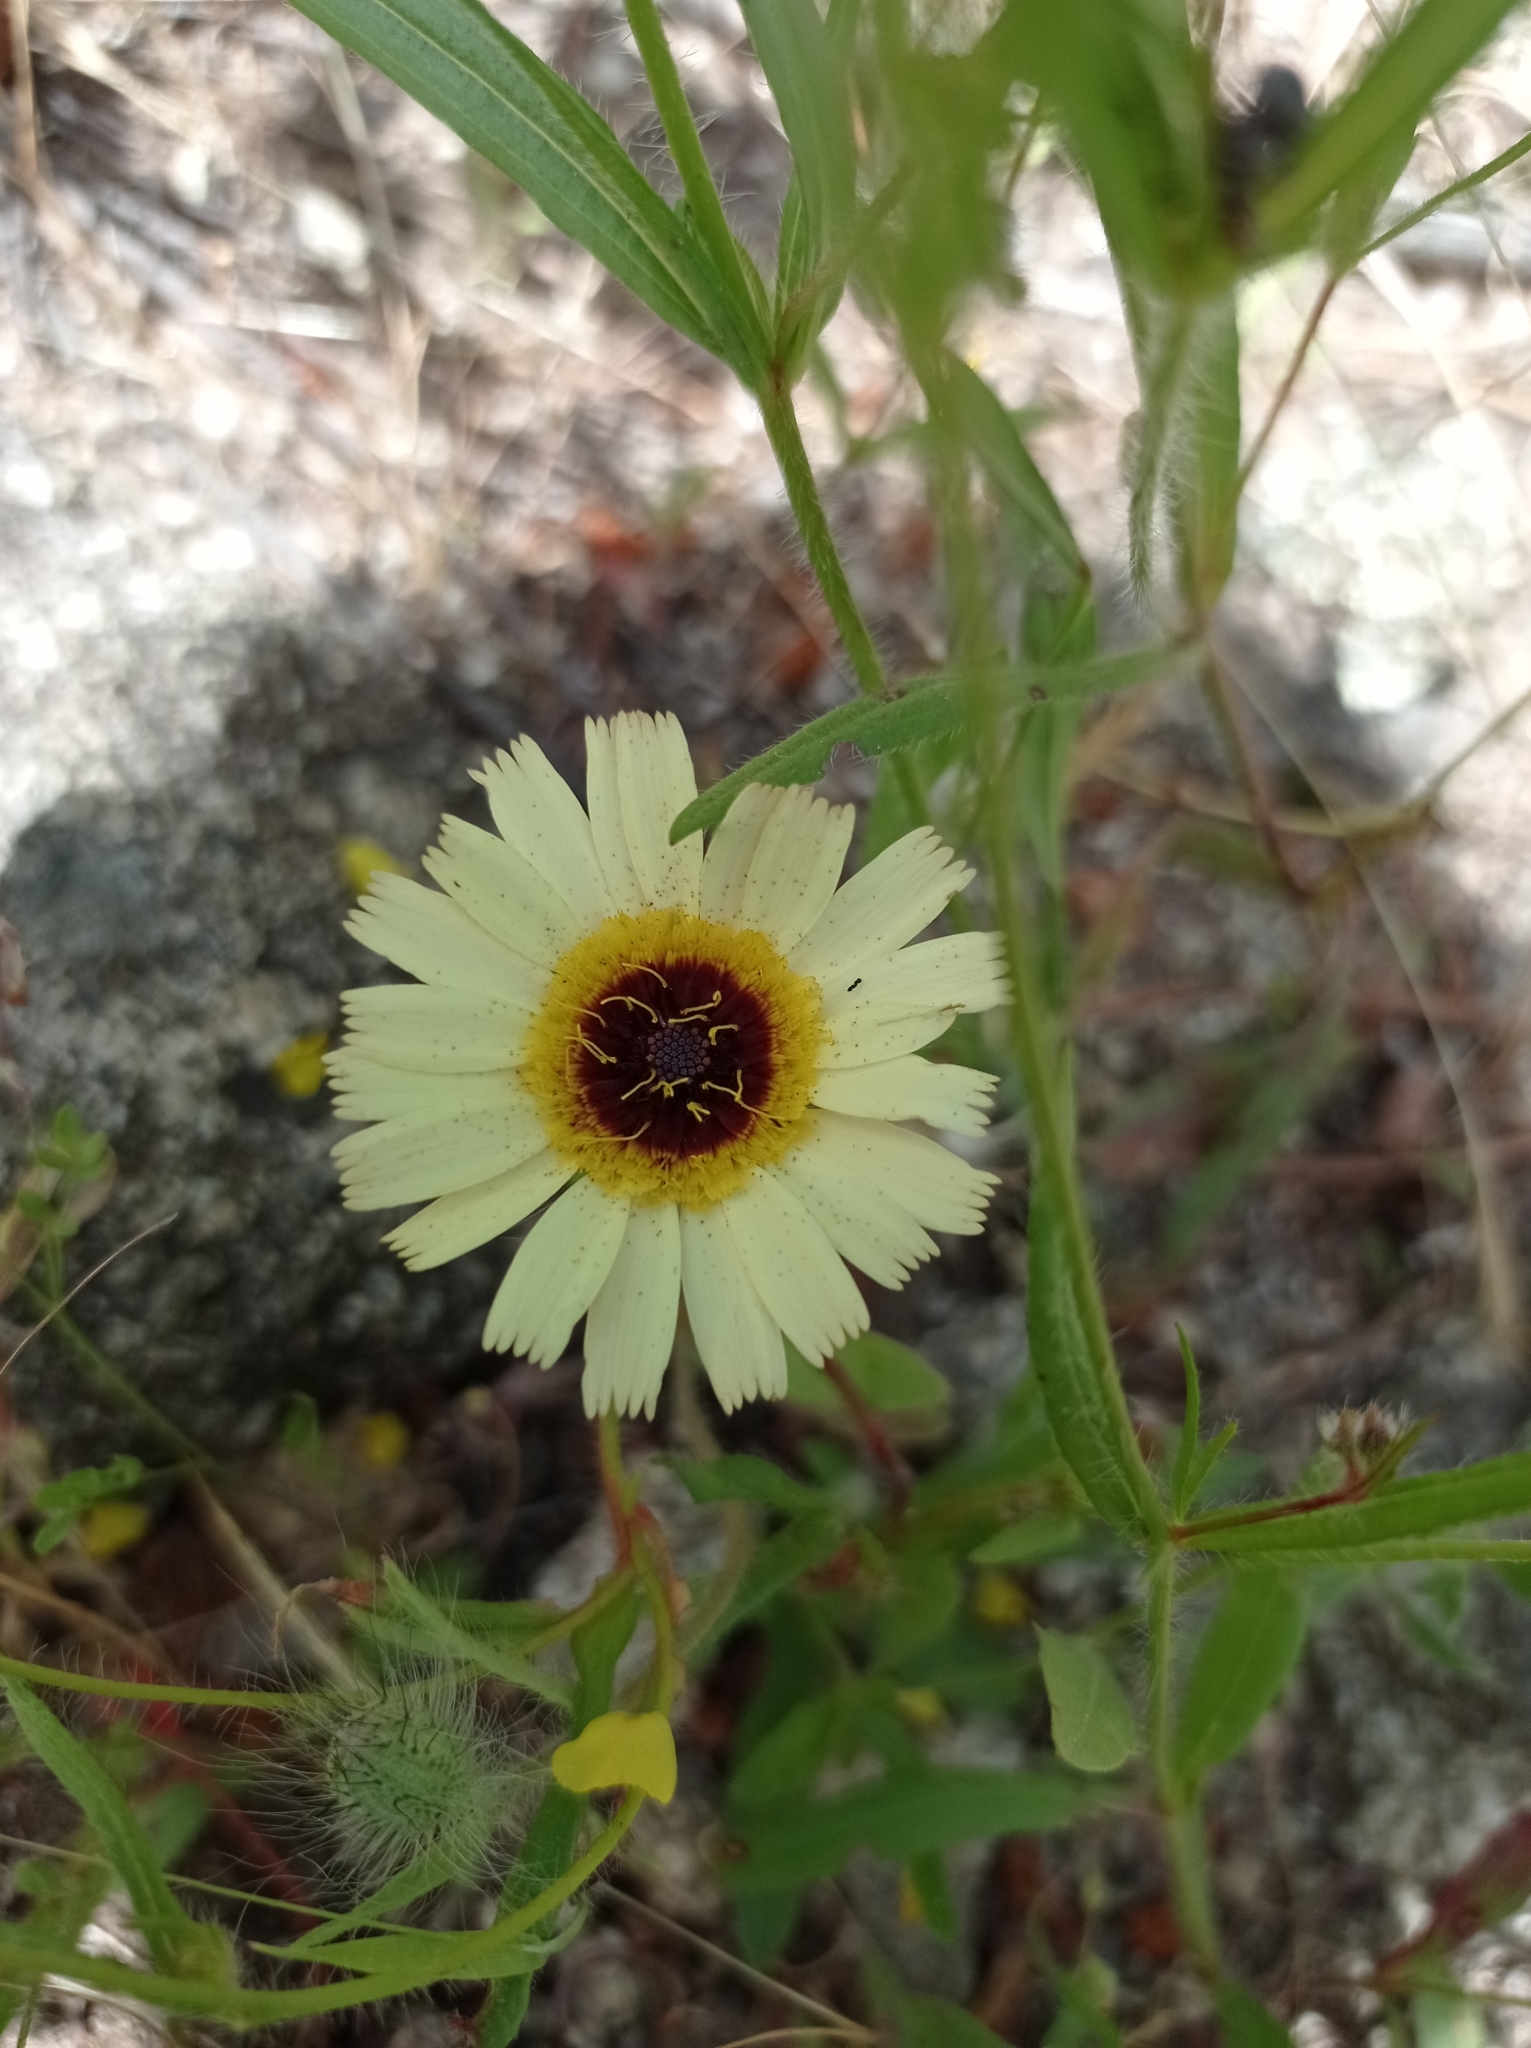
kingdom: Plantae
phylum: Tracheophyta
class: Magnoliopsida
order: Asterales
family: Asteraceae
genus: Hispidella
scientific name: Hispidella hispanica
